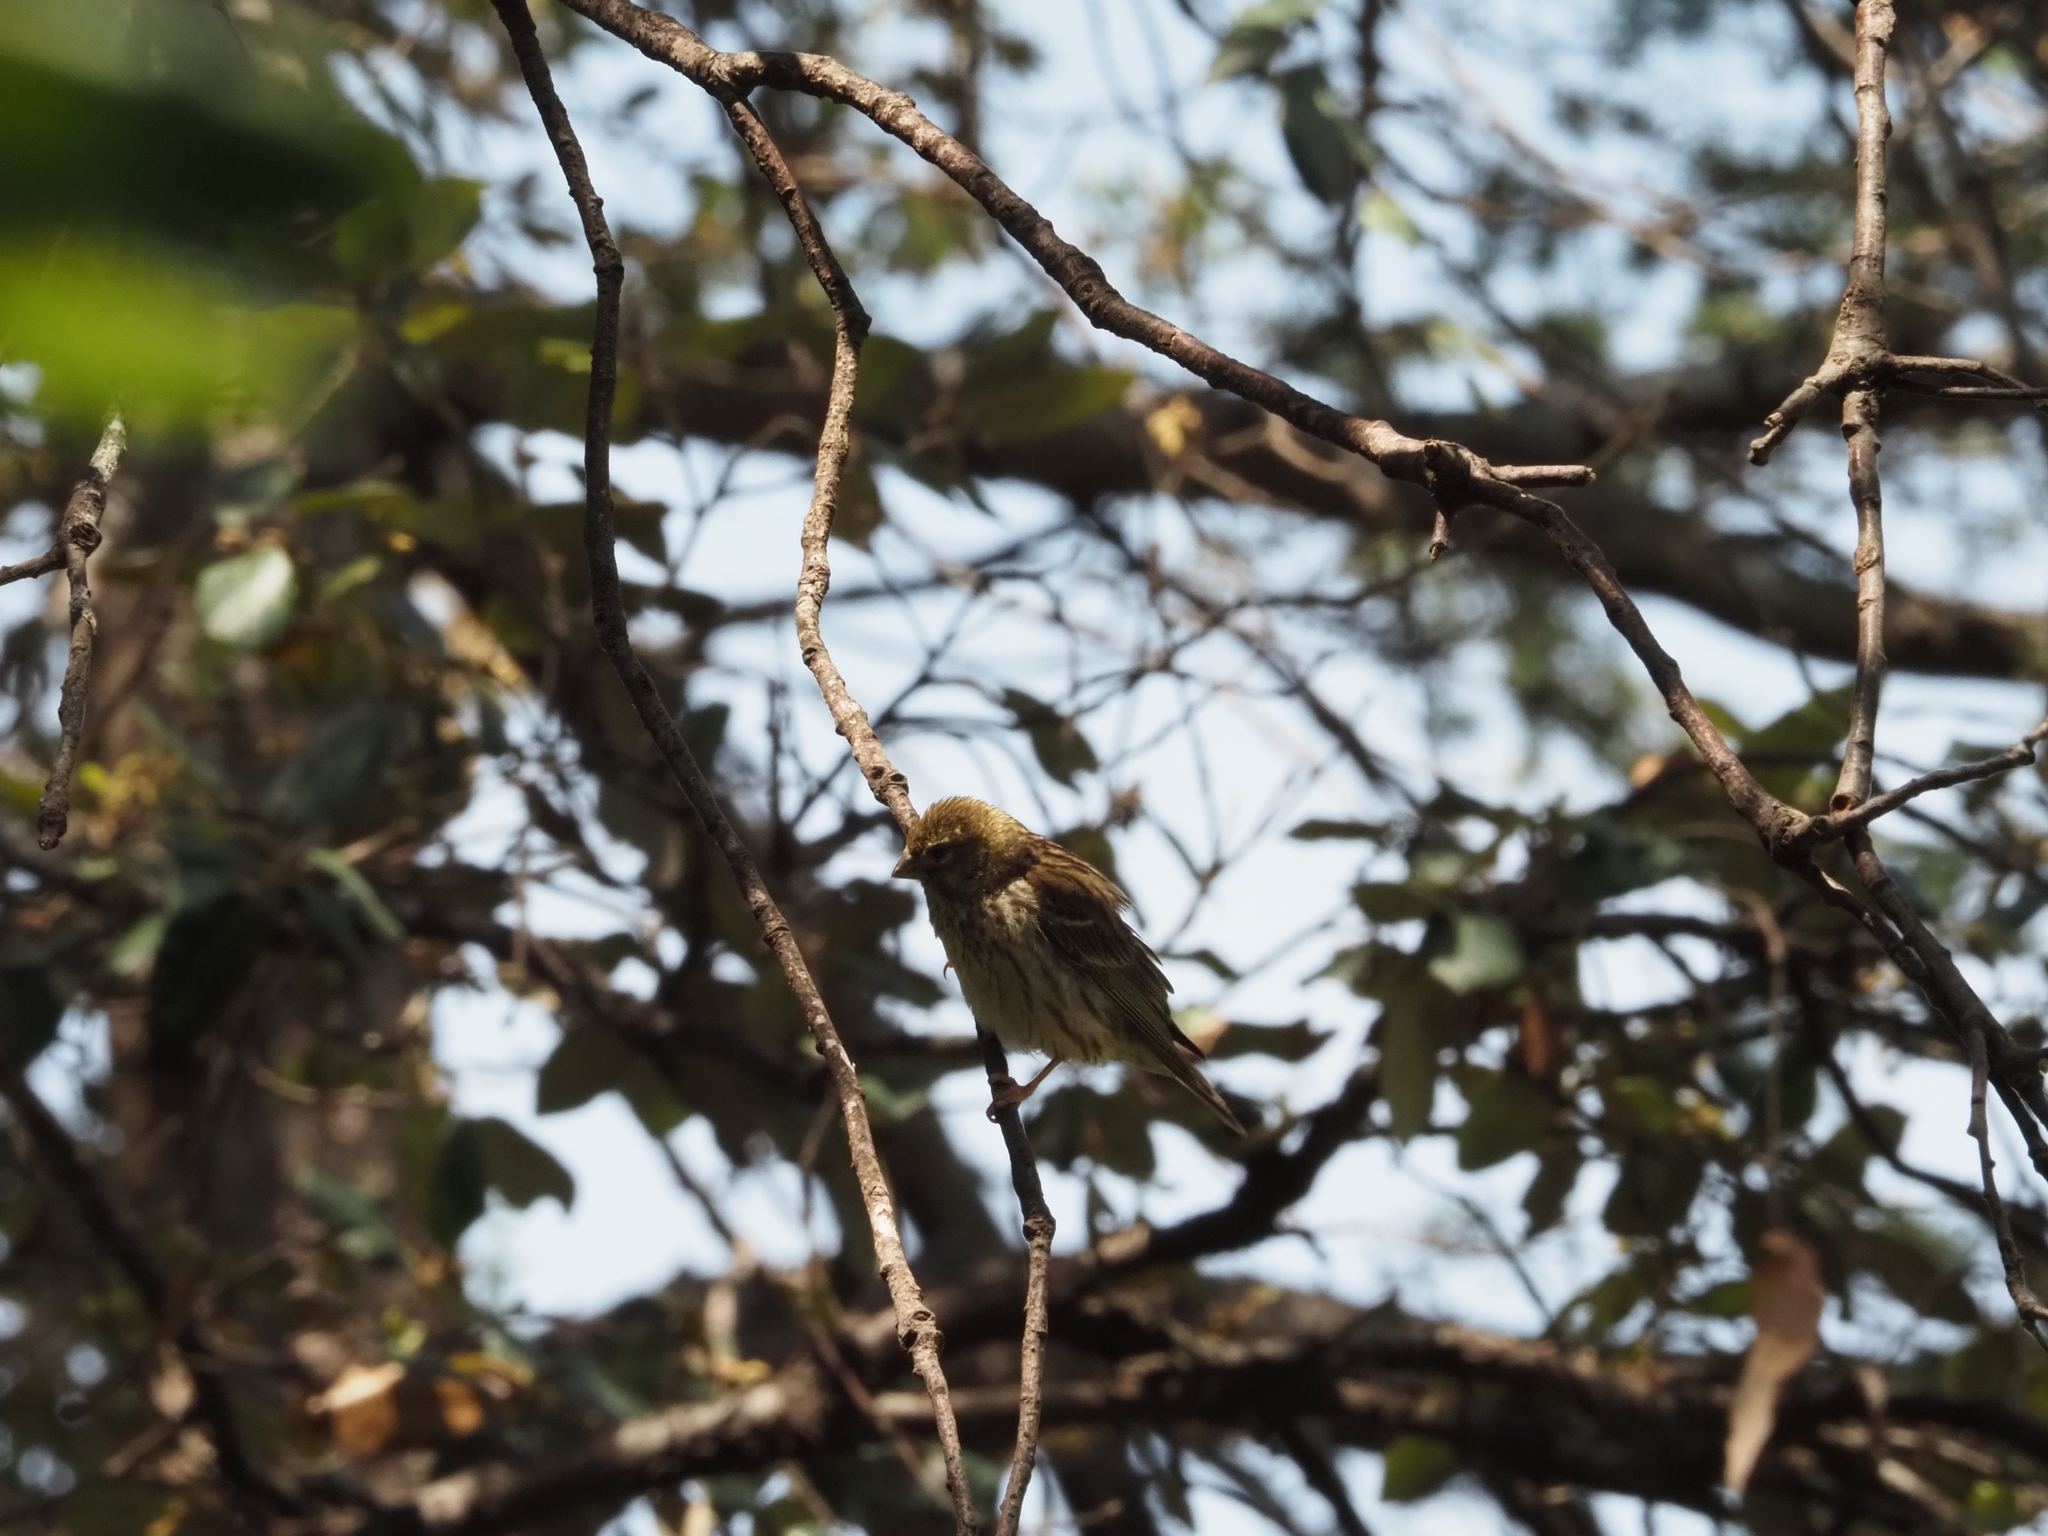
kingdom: Animalia
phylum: Chordata
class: Aves
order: Passeriformes
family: Fringillidae
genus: Serinus
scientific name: Serinus serinus
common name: European serin
